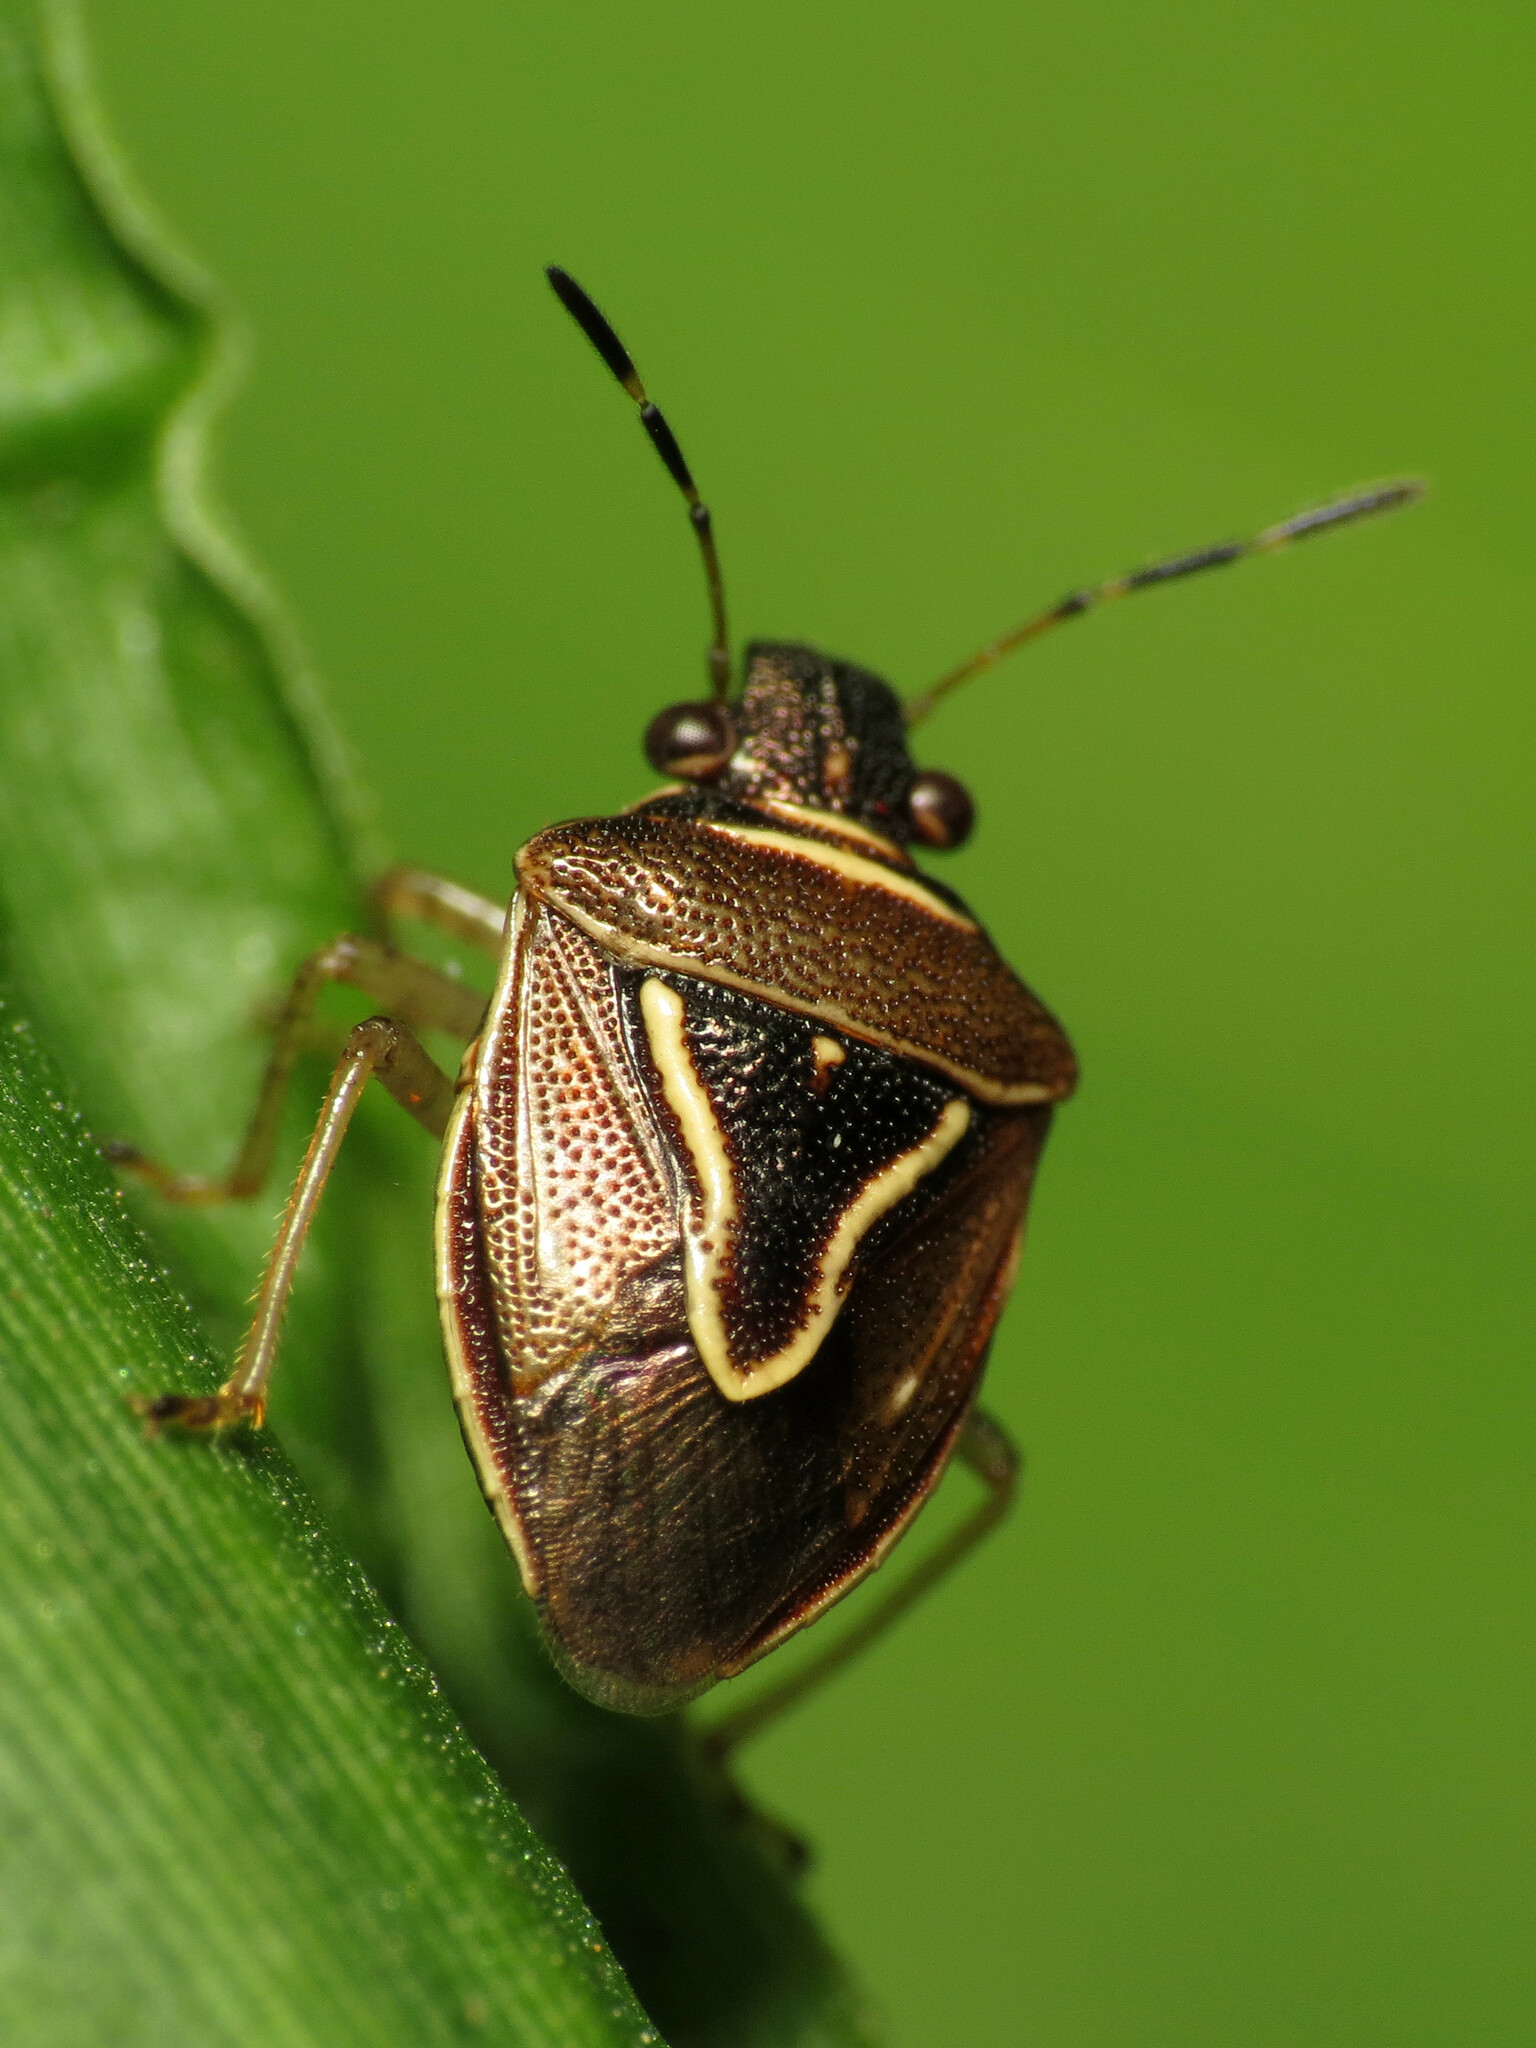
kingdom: Animalia
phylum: Arthropoda
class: Insecta
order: Hemiptera
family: Pentatomidae
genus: Mormidea
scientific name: Mormidea lugens
